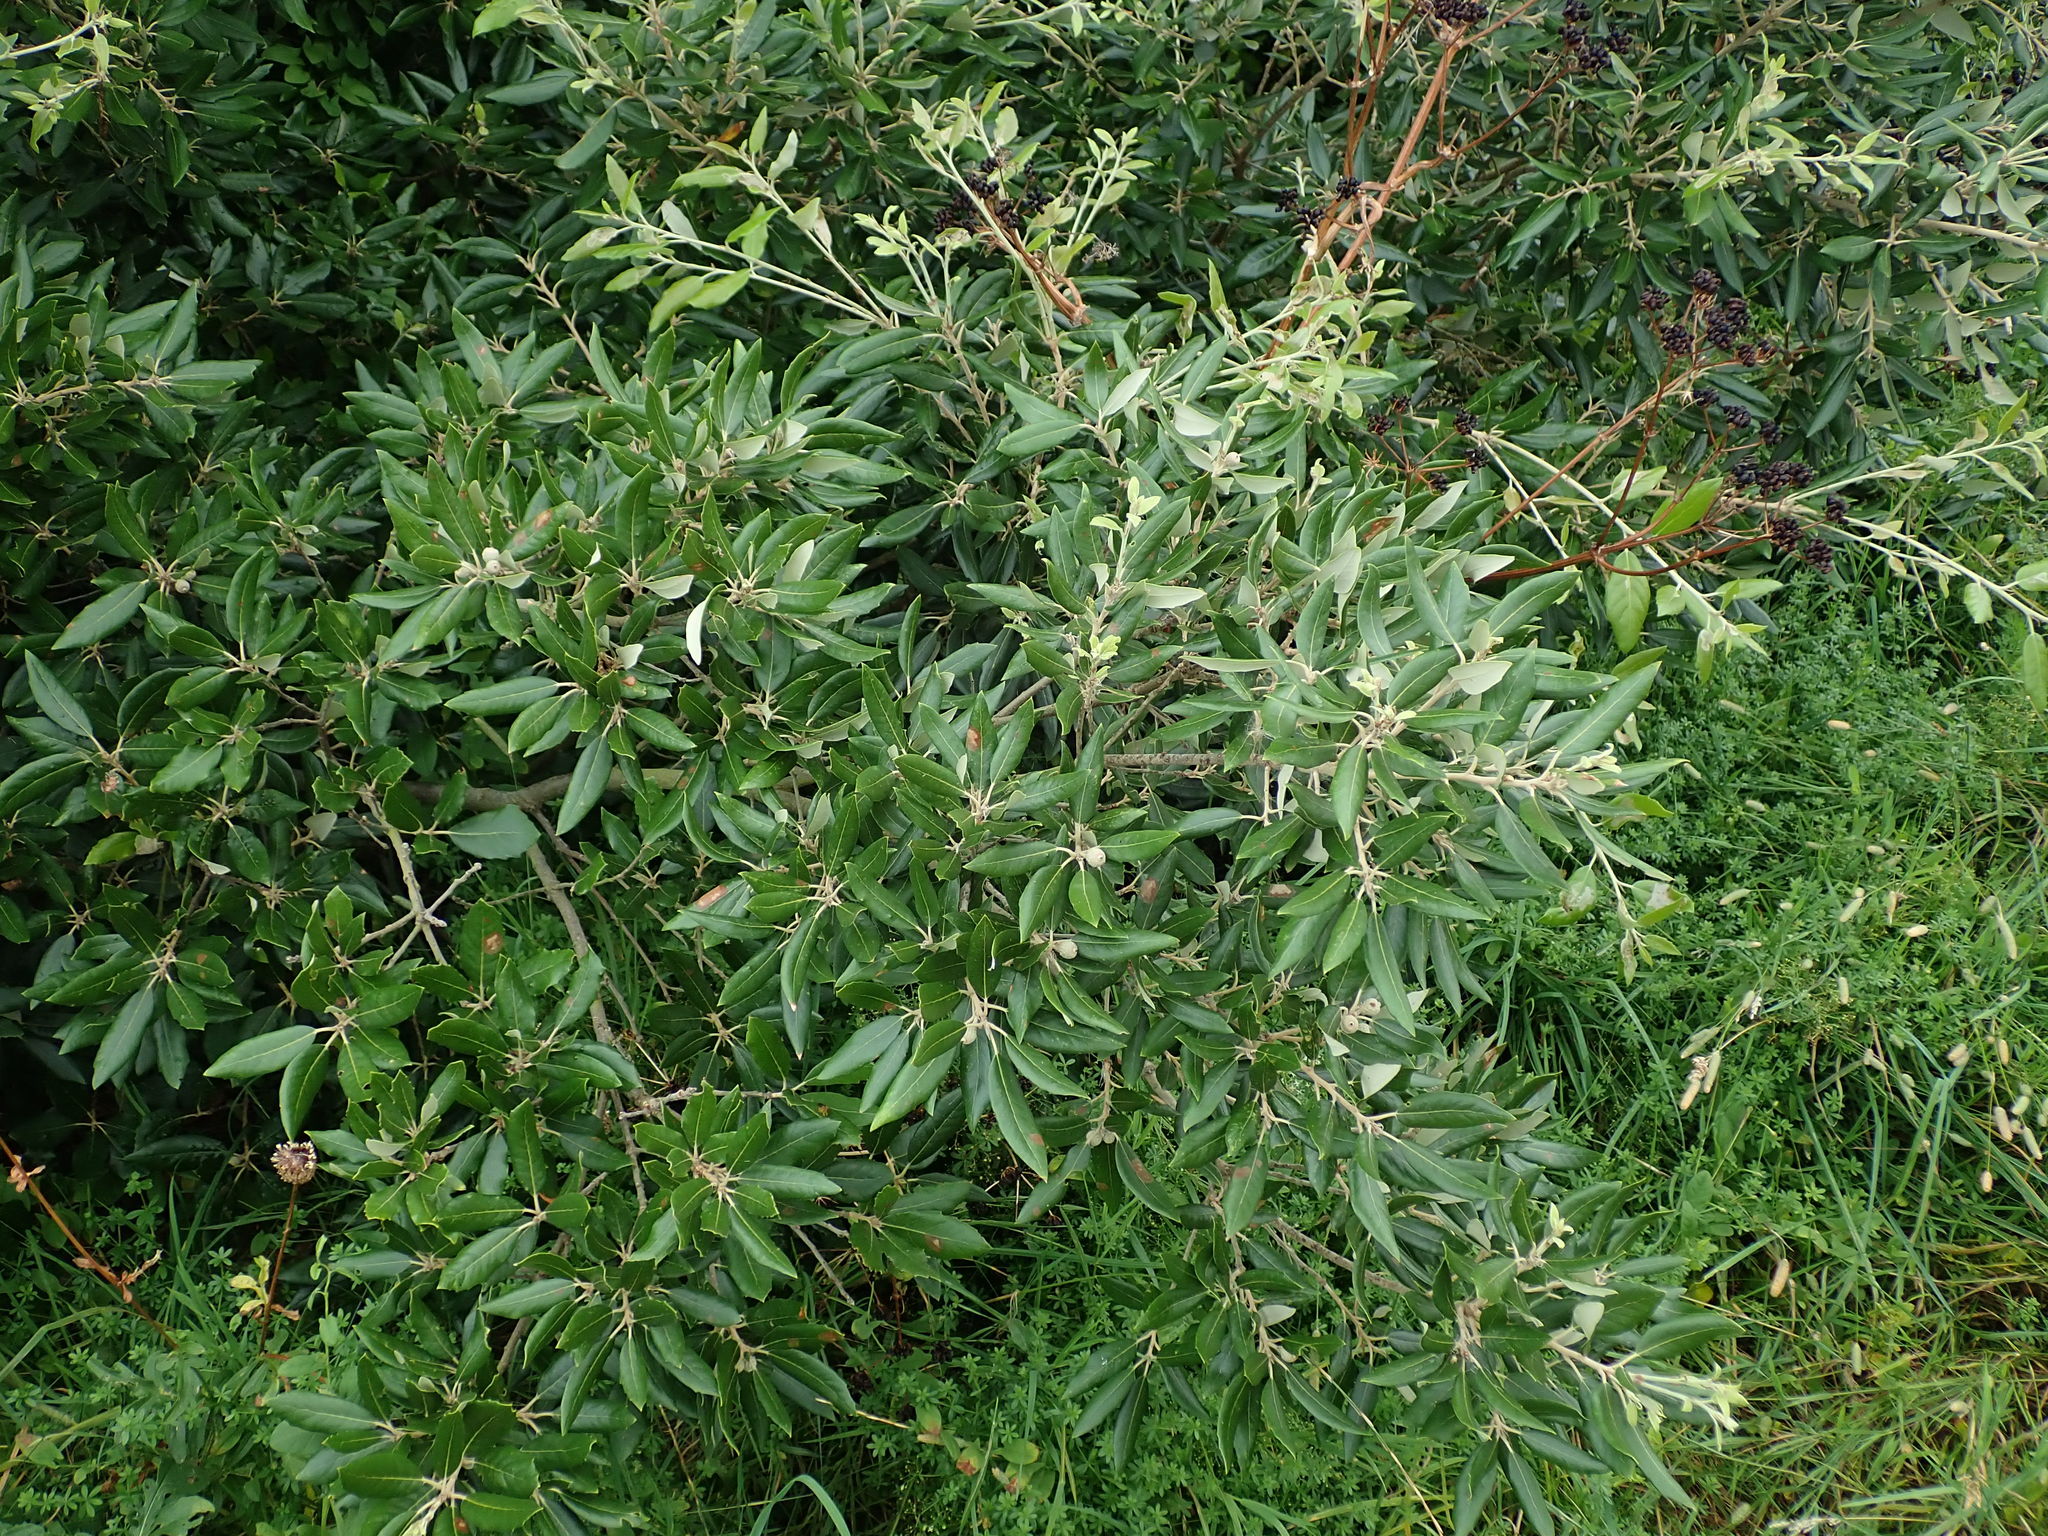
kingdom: Plantae
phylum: Tracheophyta
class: Magnoliopsida
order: Fagales
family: Fagaceae
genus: Quercus
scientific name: Quercus ilex
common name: Evergreen oak
